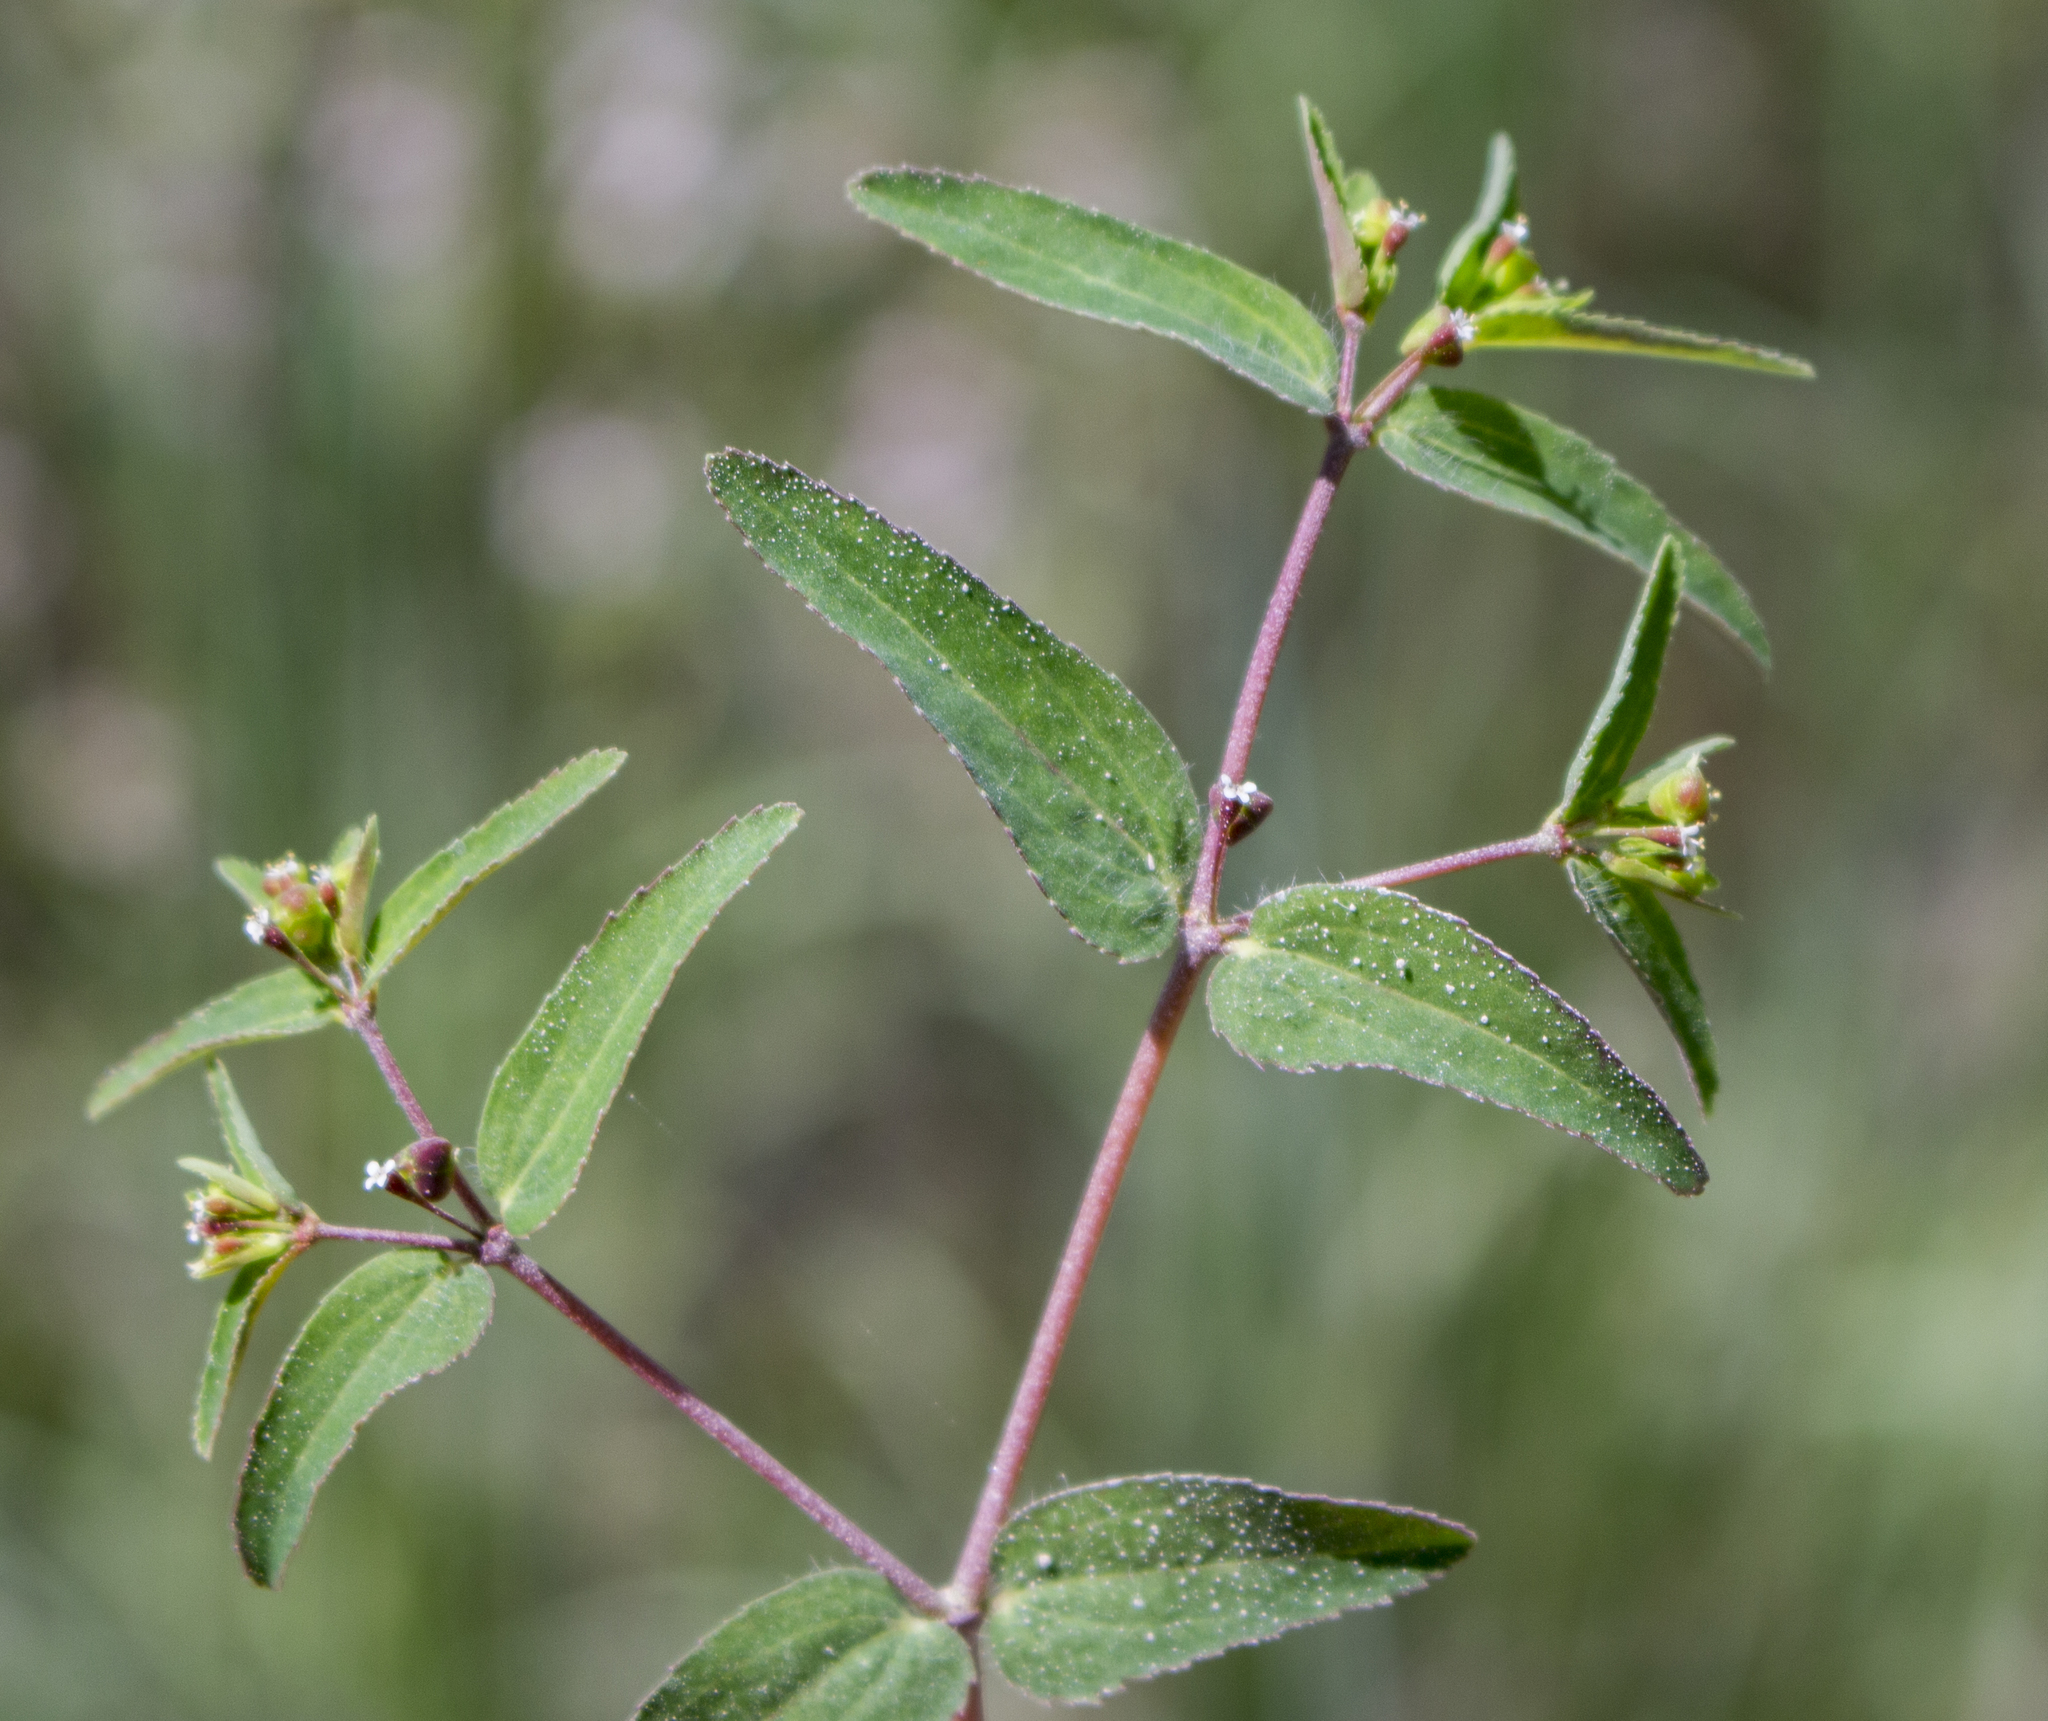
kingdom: Plantae
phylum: Tracheophyta
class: Magnoliopsida
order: Malpighiales
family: Euphorbiaceae
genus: Euphorbia
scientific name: Euphorbia nutans
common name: Eyebane
